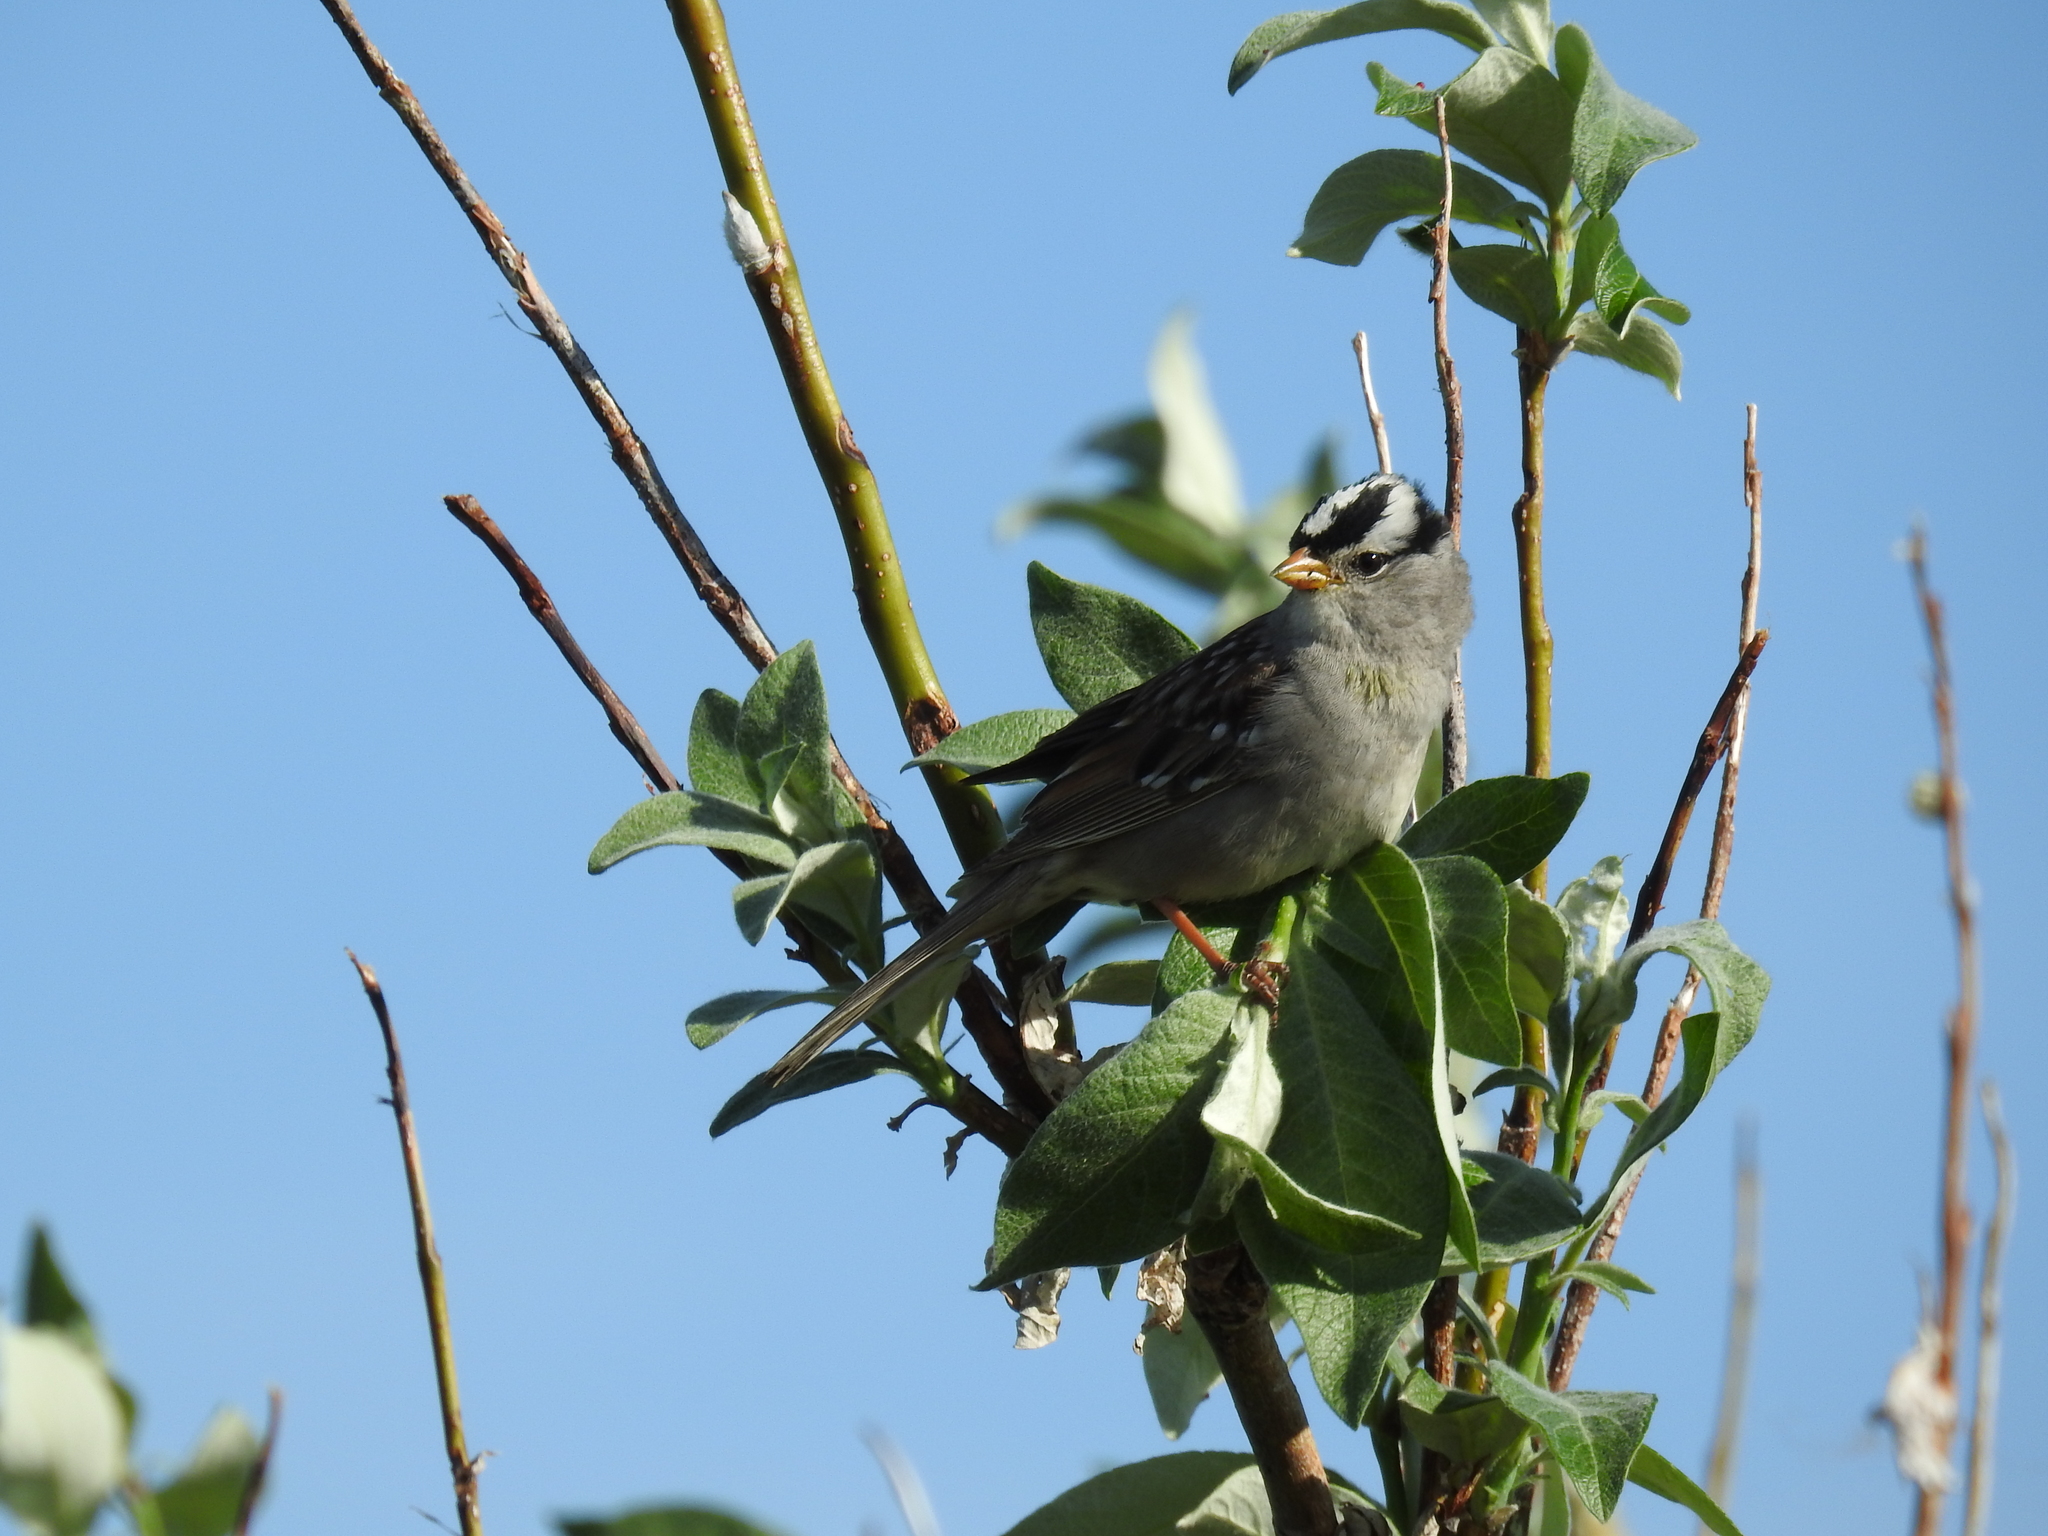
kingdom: Animalia
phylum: Chordata
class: Aves
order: Passeriformes
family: Passerellidae
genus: Zonotrichia
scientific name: Zonotrichia leucophrys
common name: White-crowned sparrow
